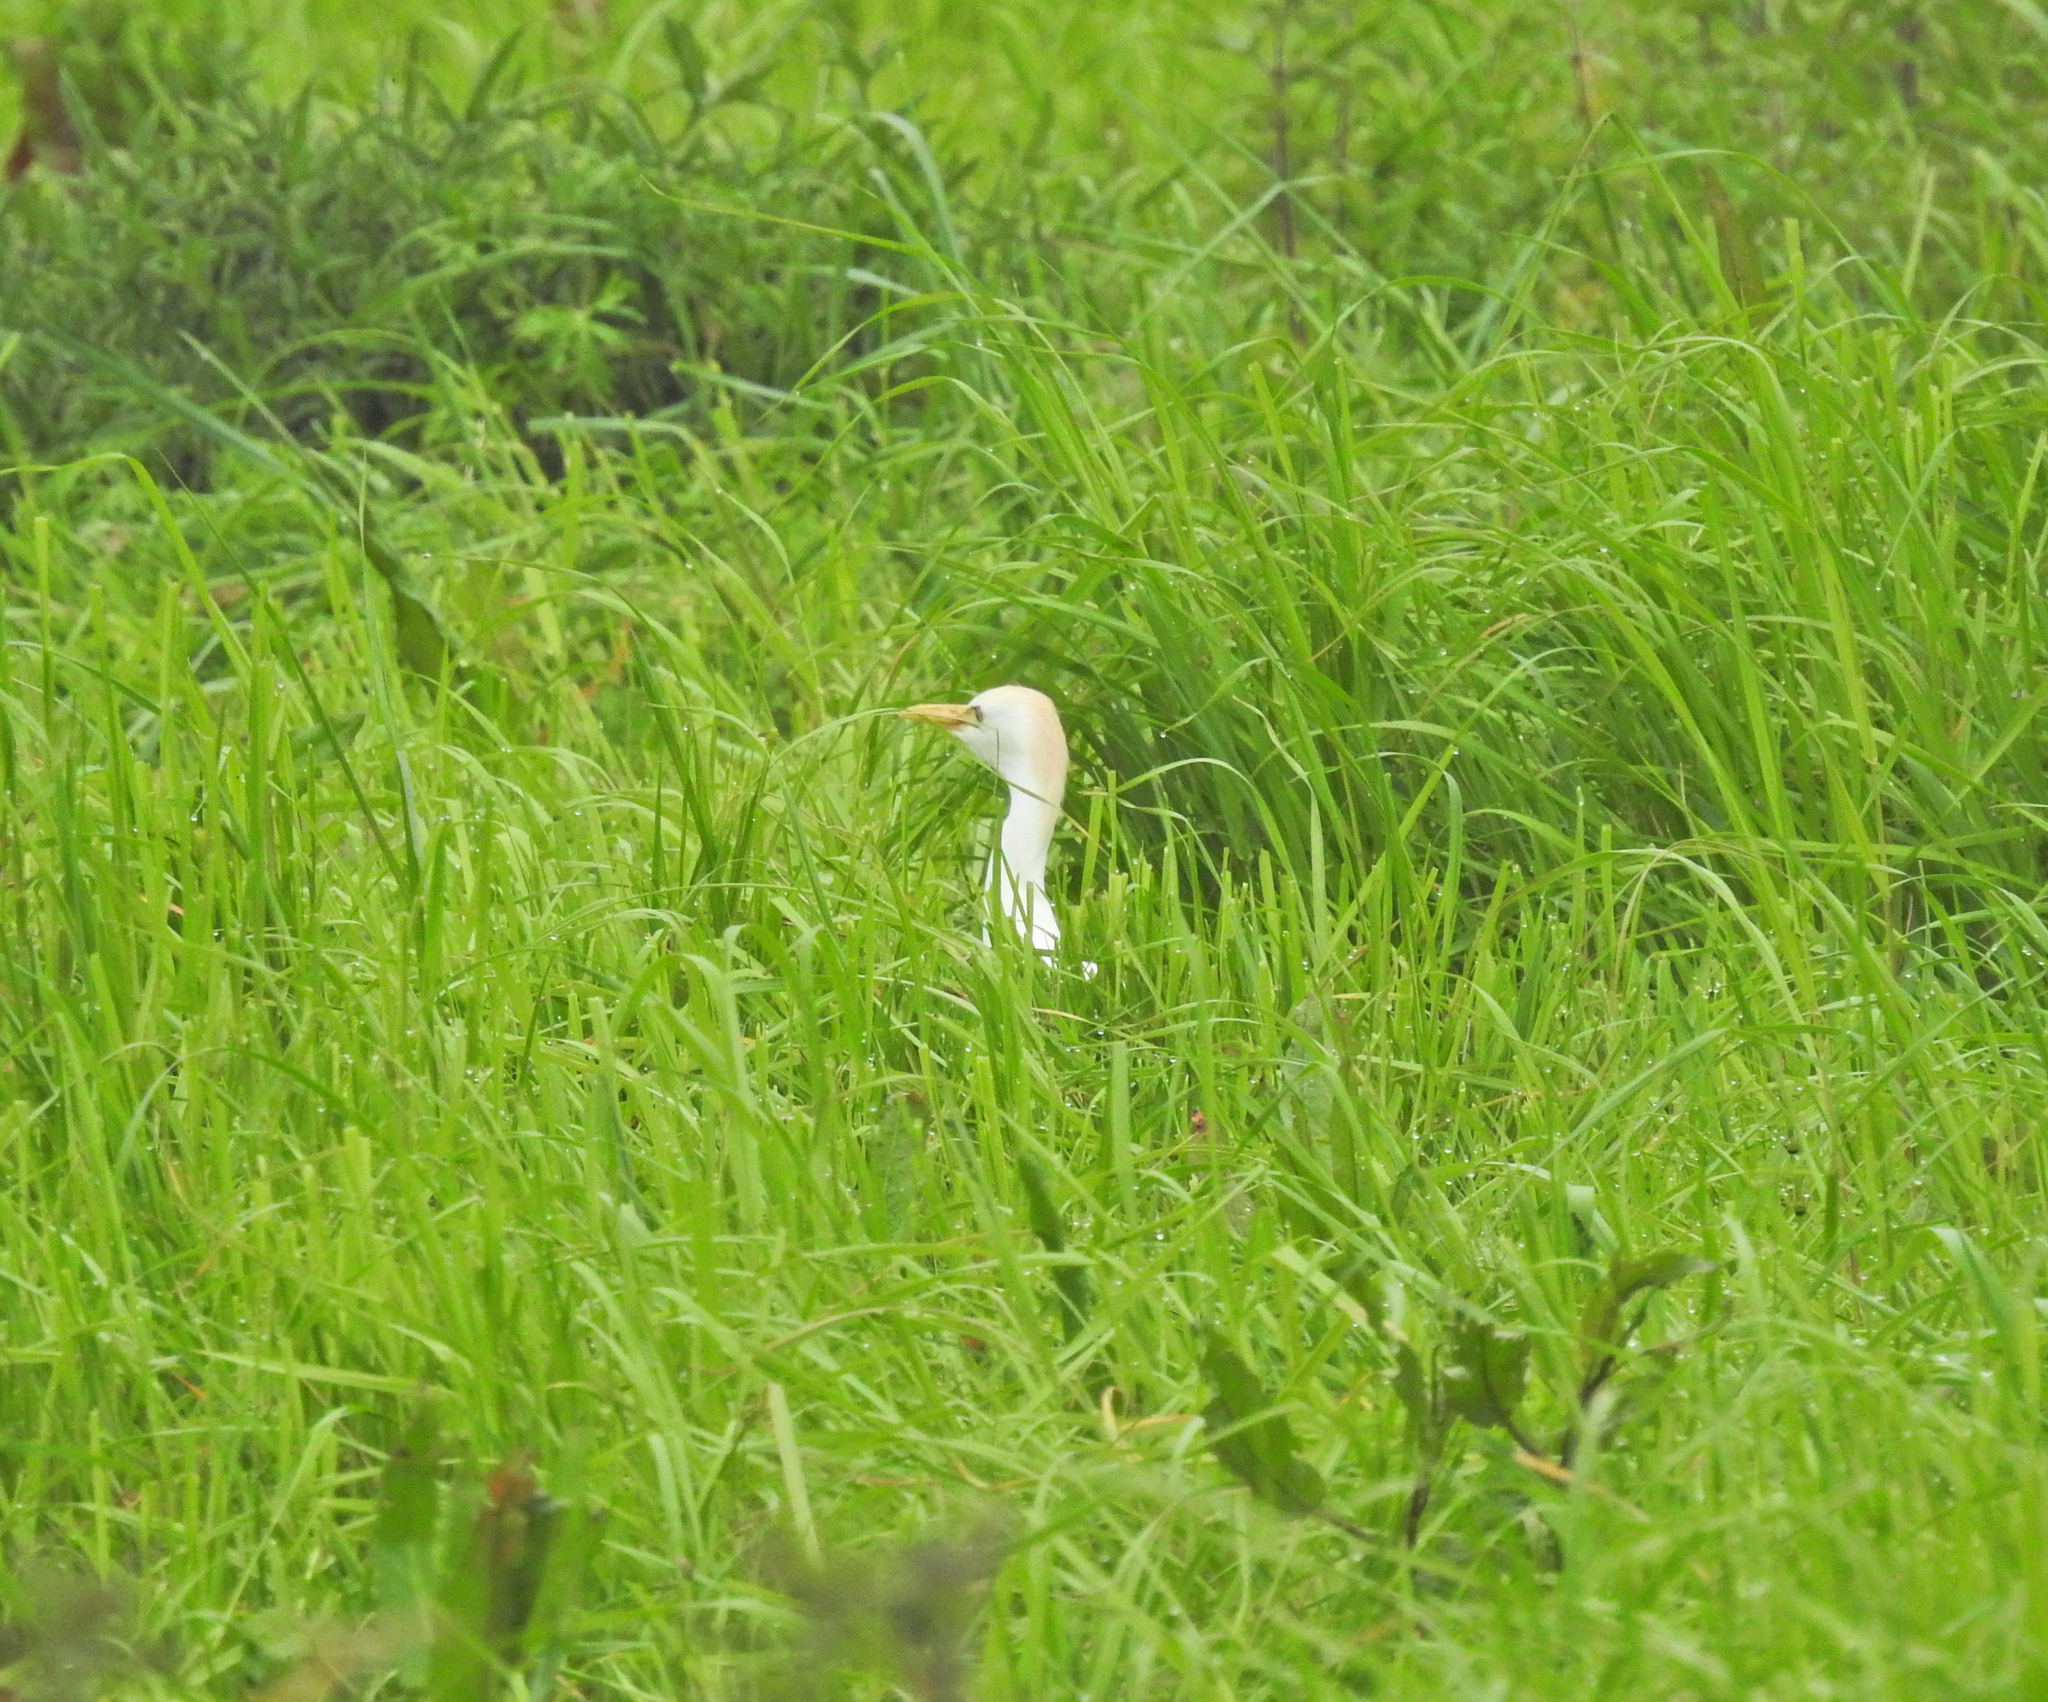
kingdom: Animalia
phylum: Chordata
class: Aves
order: Pelecaniformes
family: Ardeidae
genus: Bubulcus
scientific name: Bubulcus ibis
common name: Cattle egret
